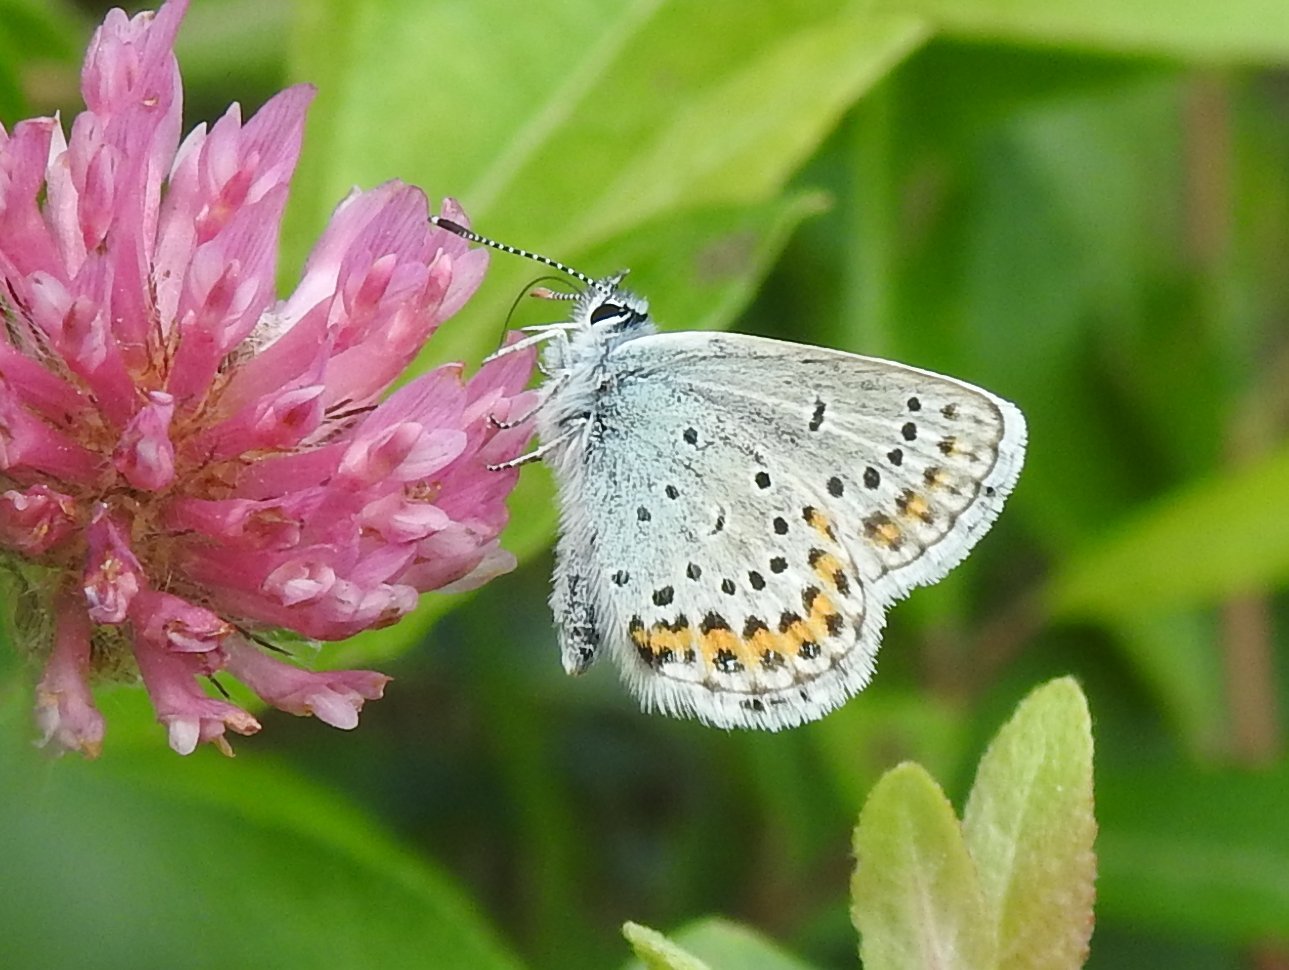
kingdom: Animalia
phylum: Arthropoda
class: Insecta
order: Lepidoptera
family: Lycaenidae
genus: Lycaeides
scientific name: Lycaeides idas
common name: Northern blue
